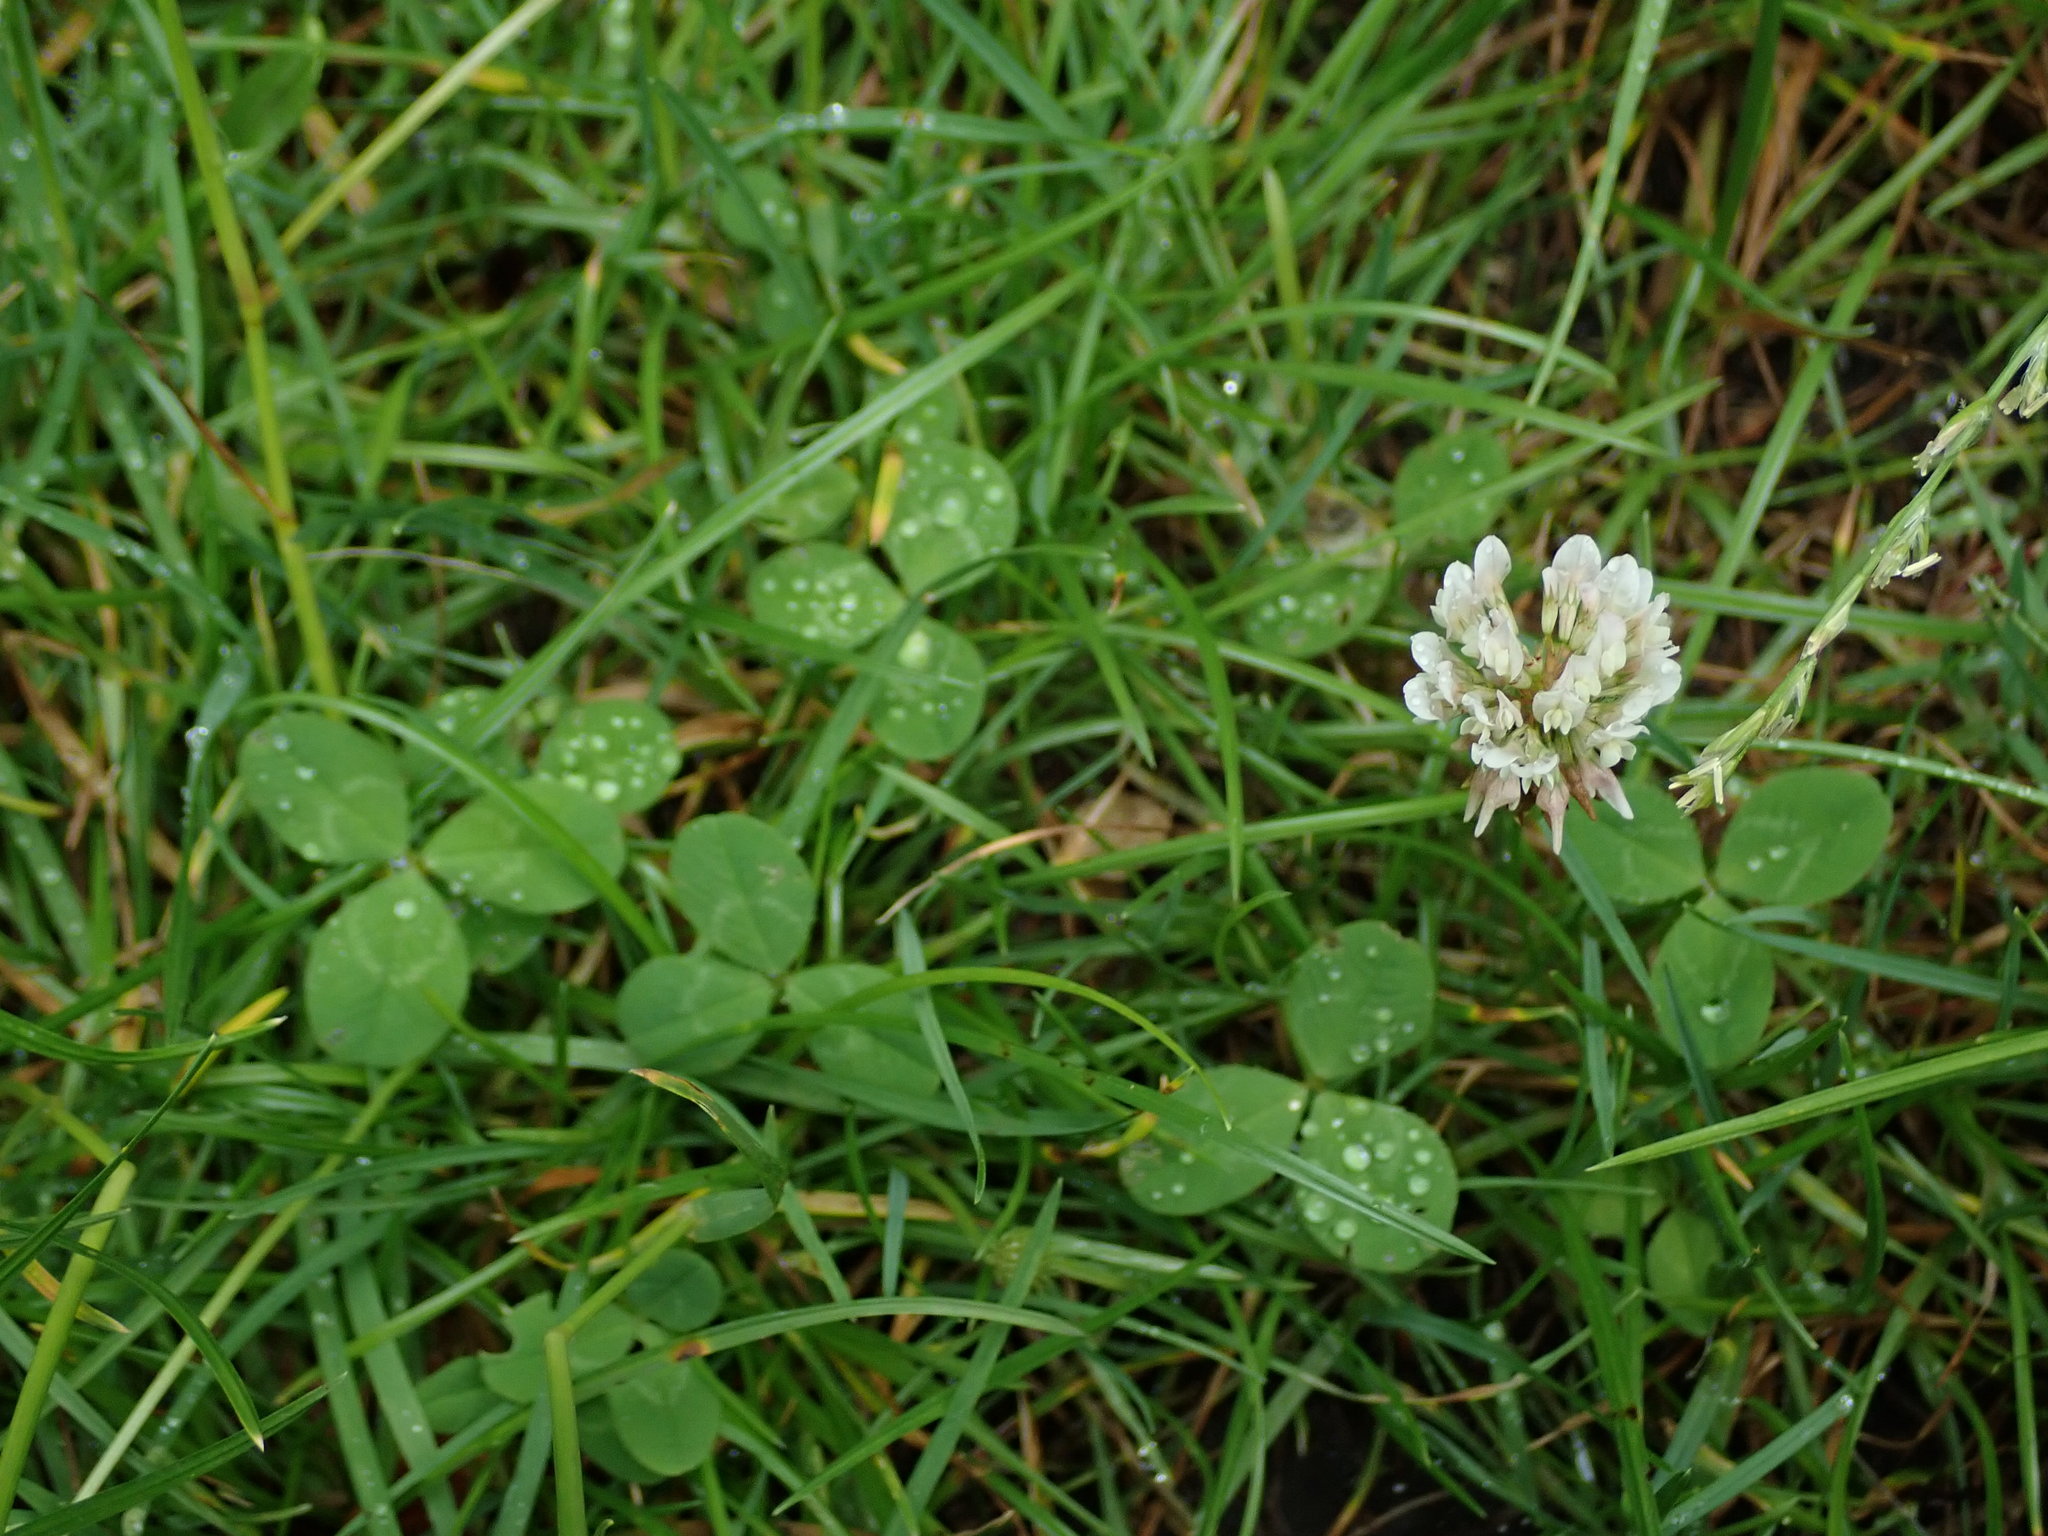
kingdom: Plantae
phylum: Tracheophyta
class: Magnoliopsida
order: Fabales
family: Fabaceae
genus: Trifolium
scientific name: Trifolium repens
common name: White clover
